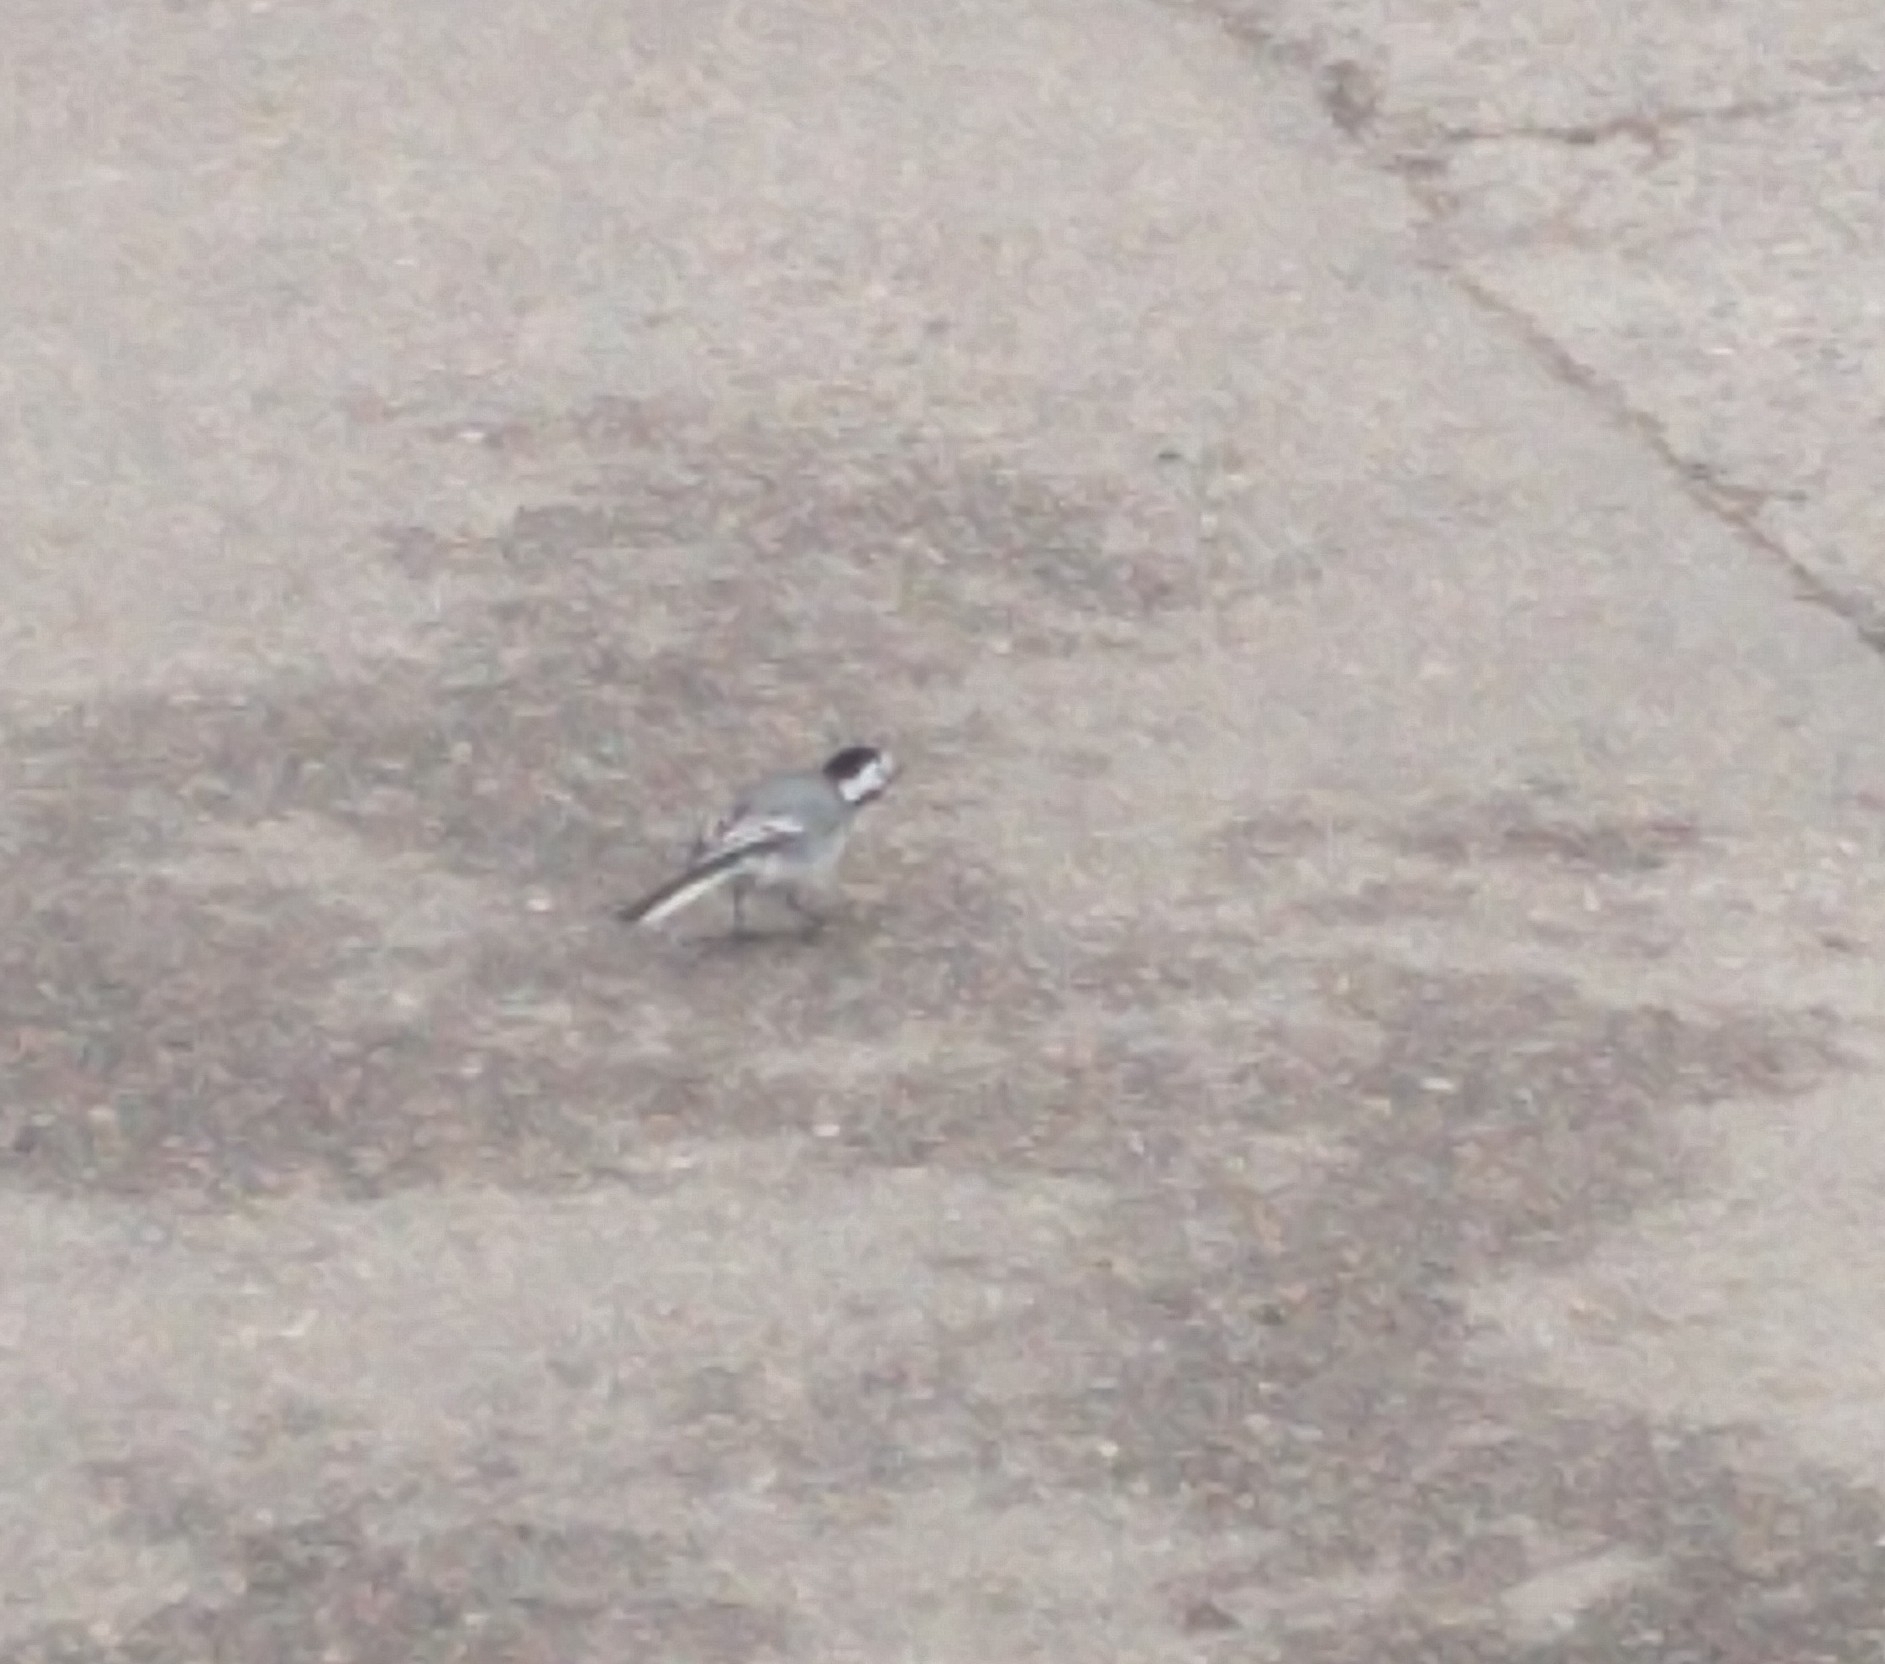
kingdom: Animalia
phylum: Chordata
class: Aves
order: Passeriformes
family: Motacillidae
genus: Motacilla
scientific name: Motacilla alba
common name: White wagtail
